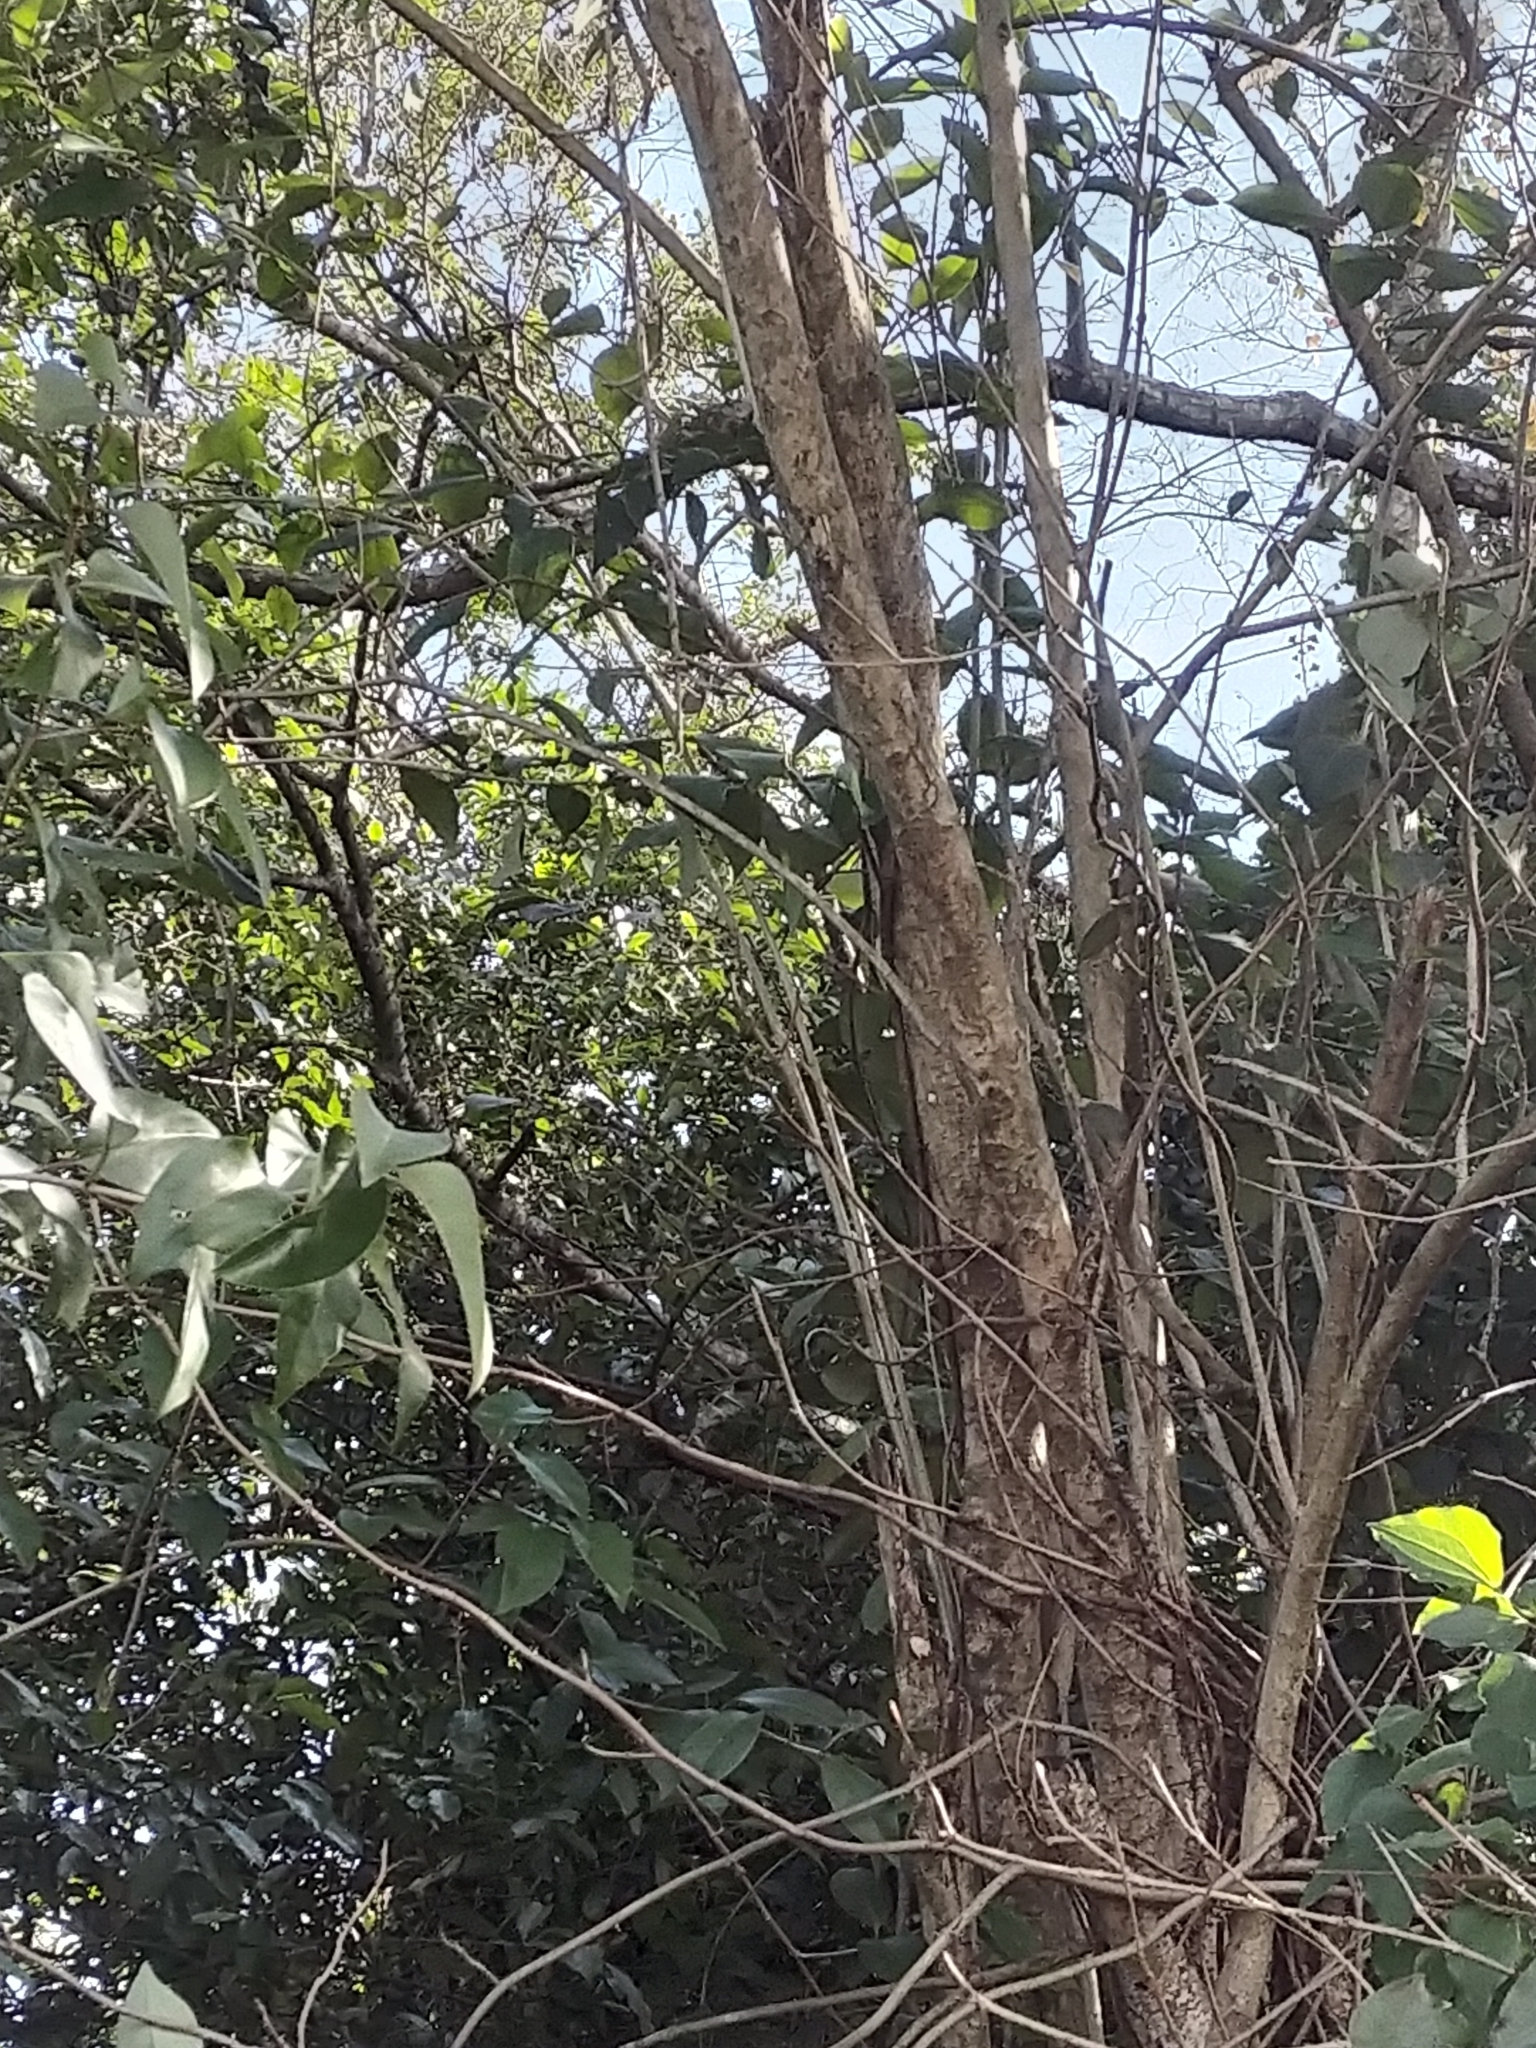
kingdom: Plantae
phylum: Tracheophyta
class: Magnoliopsida
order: Lamiales
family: Oleaceae
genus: Ligustrum
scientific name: Ligustrum lucidum
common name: Glossy privet
